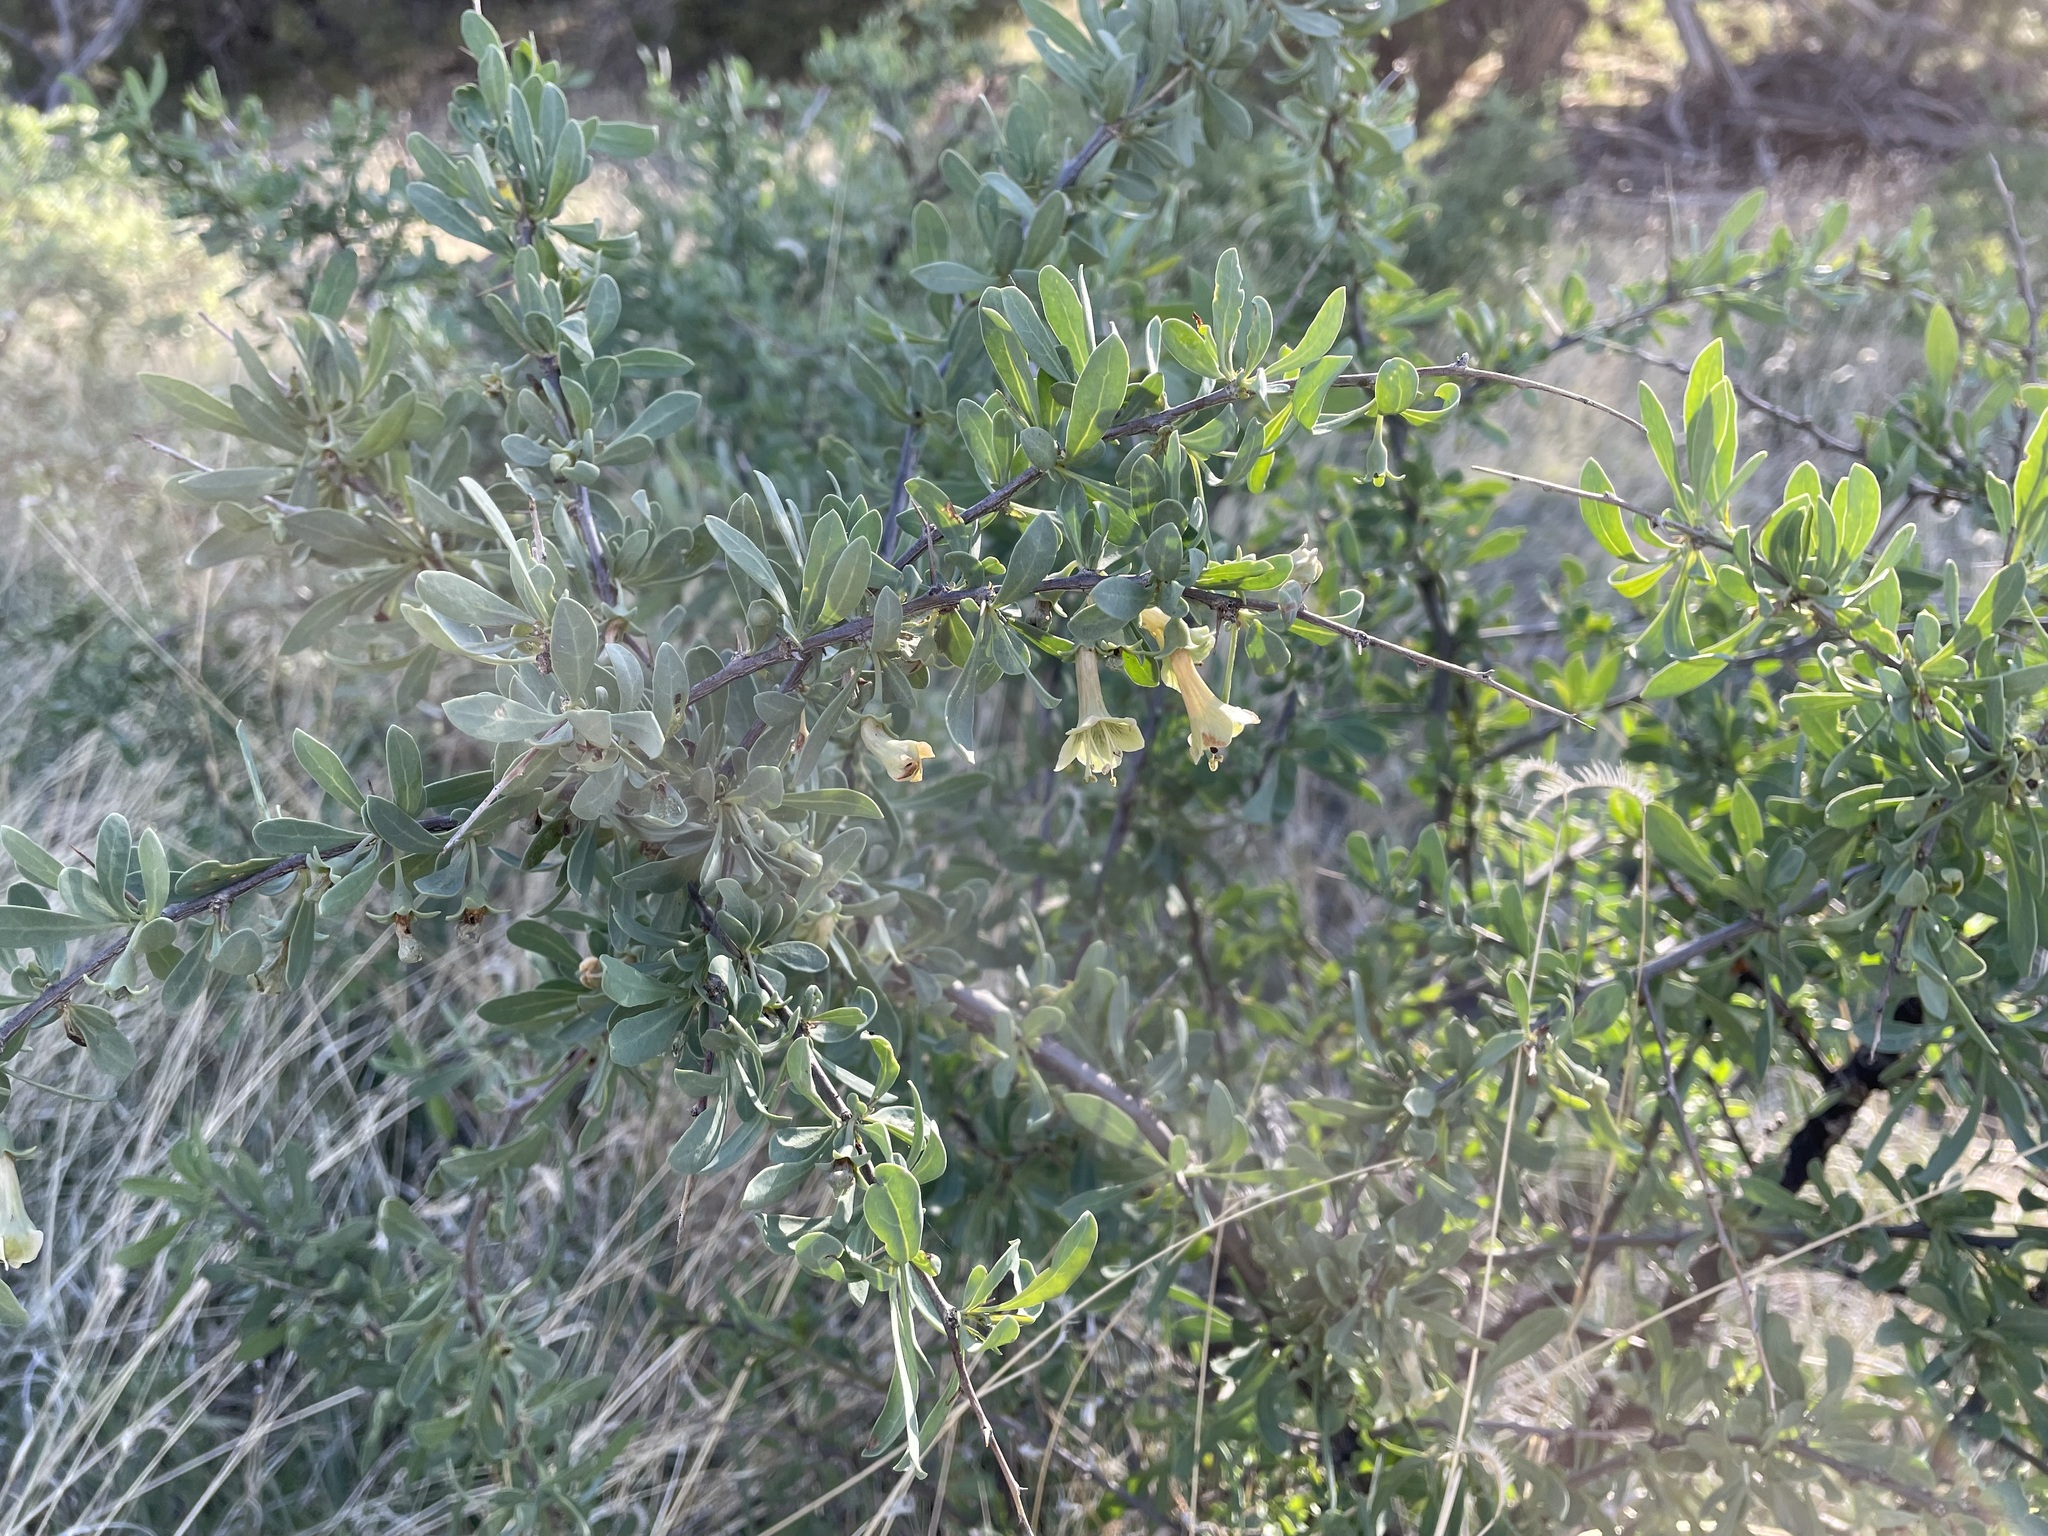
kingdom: Plantae
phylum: Tracheophyta
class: Magnoliopsida
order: Solanales
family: Solanaceae
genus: Lycium
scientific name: Lycium pallidum
